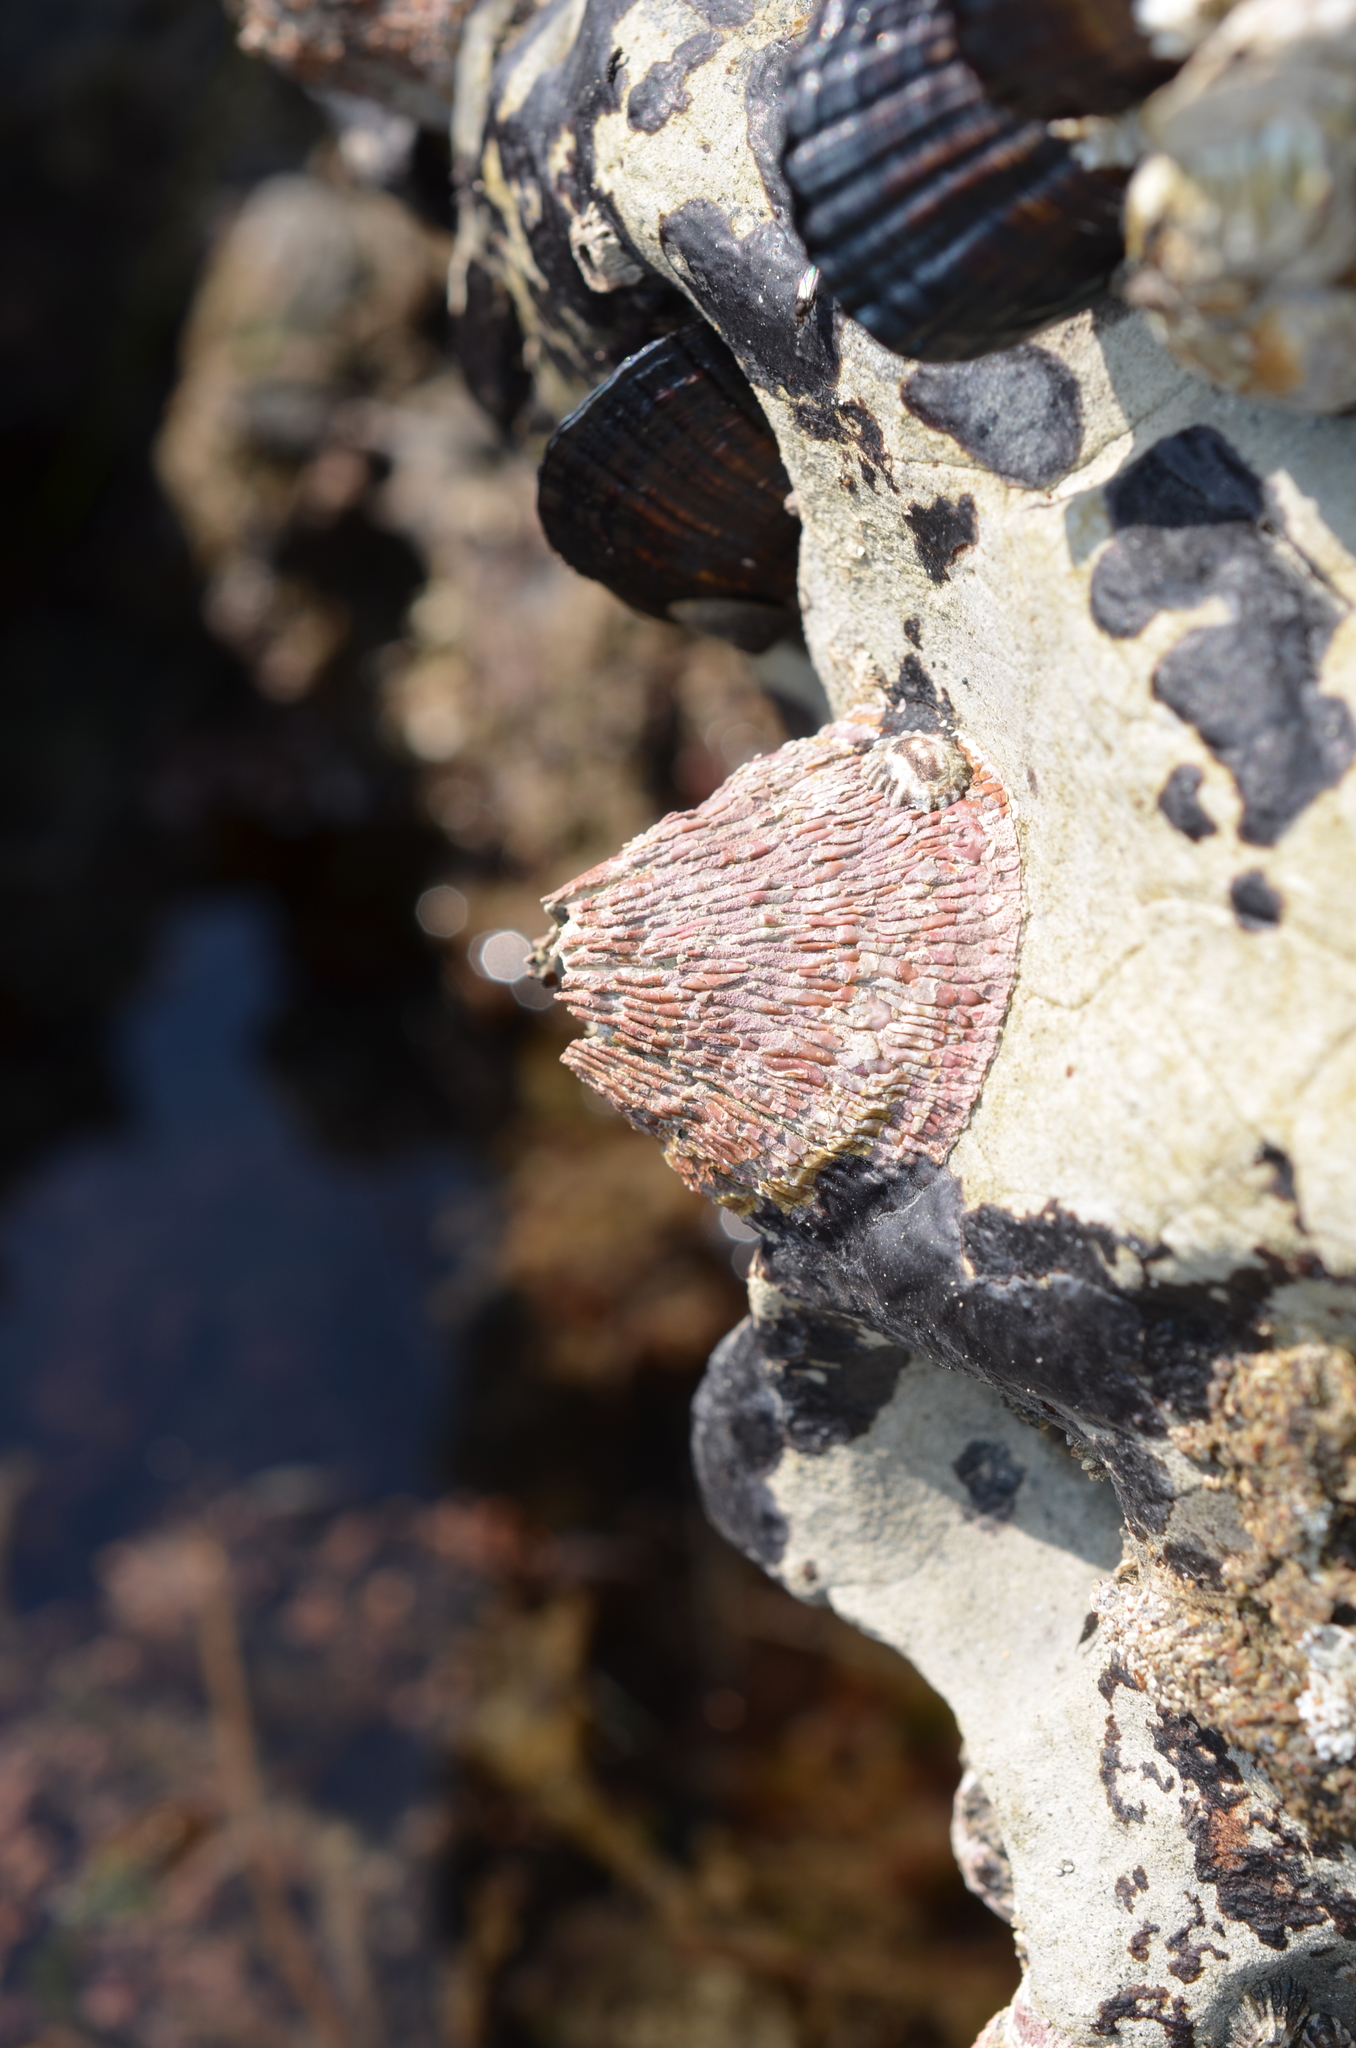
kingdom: Animalia
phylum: Arthropoda
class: Maxillopoda
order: Sessilia
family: Tetraclitidae
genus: Tetraclita
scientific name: Tetraclita rubescens
